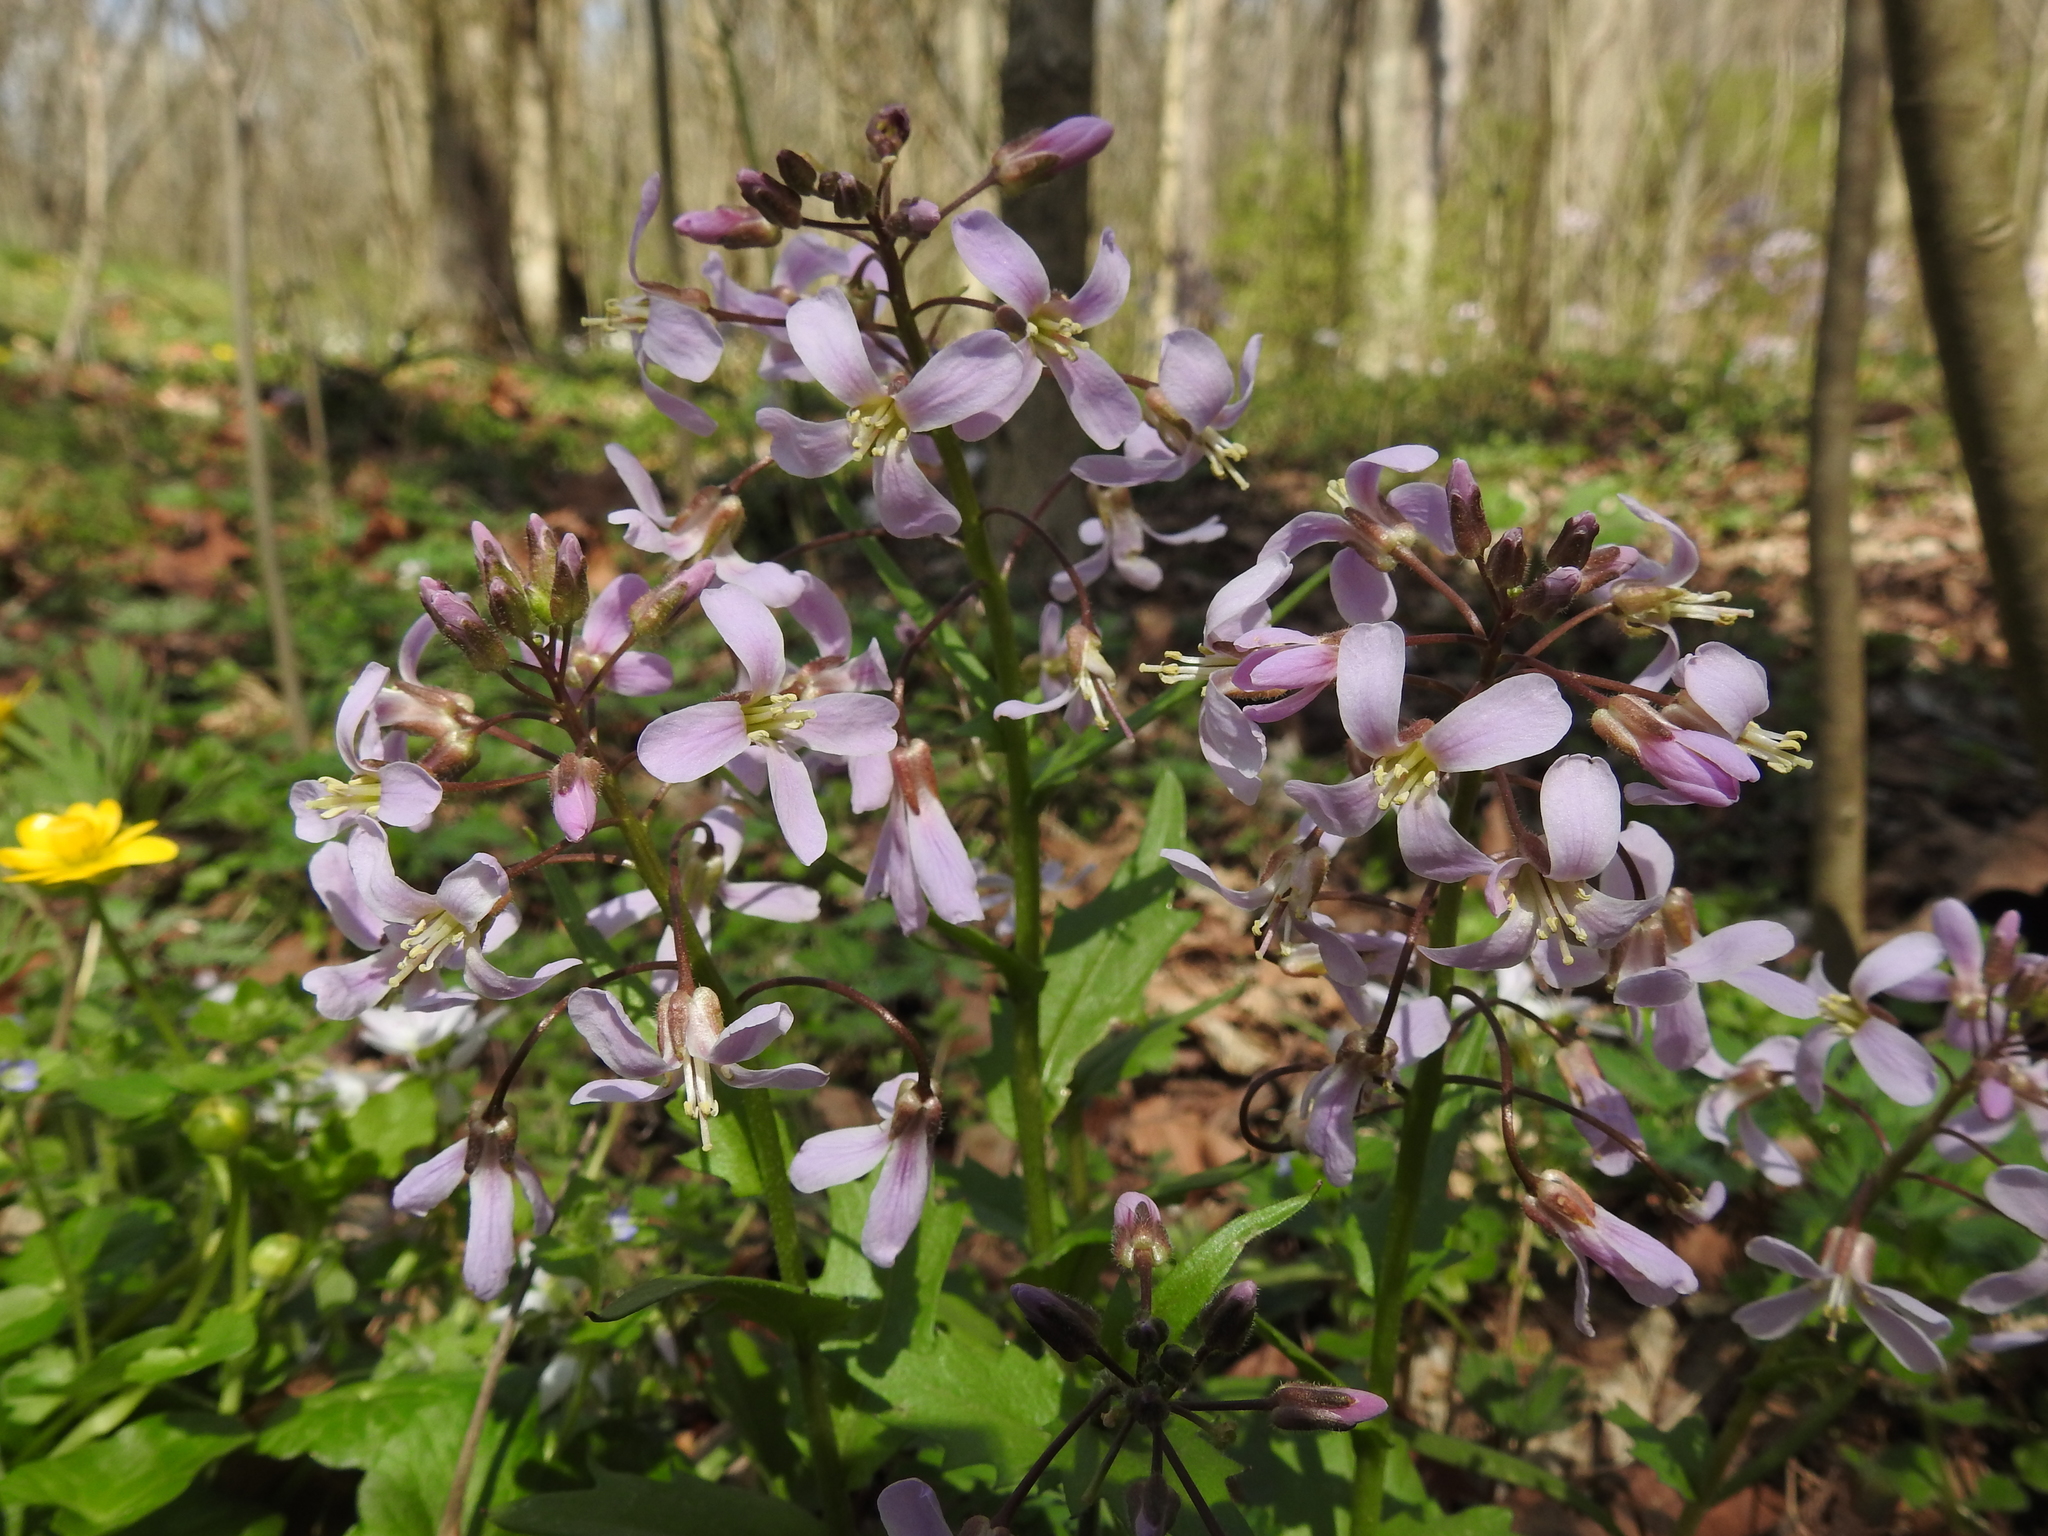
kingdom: Plantae
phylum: Tracheophyta
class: Magnoliopsida
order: Brassicales
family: Brassicaceae
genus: Cardamine
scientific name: Cardamine douglassii
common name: Purple cress
